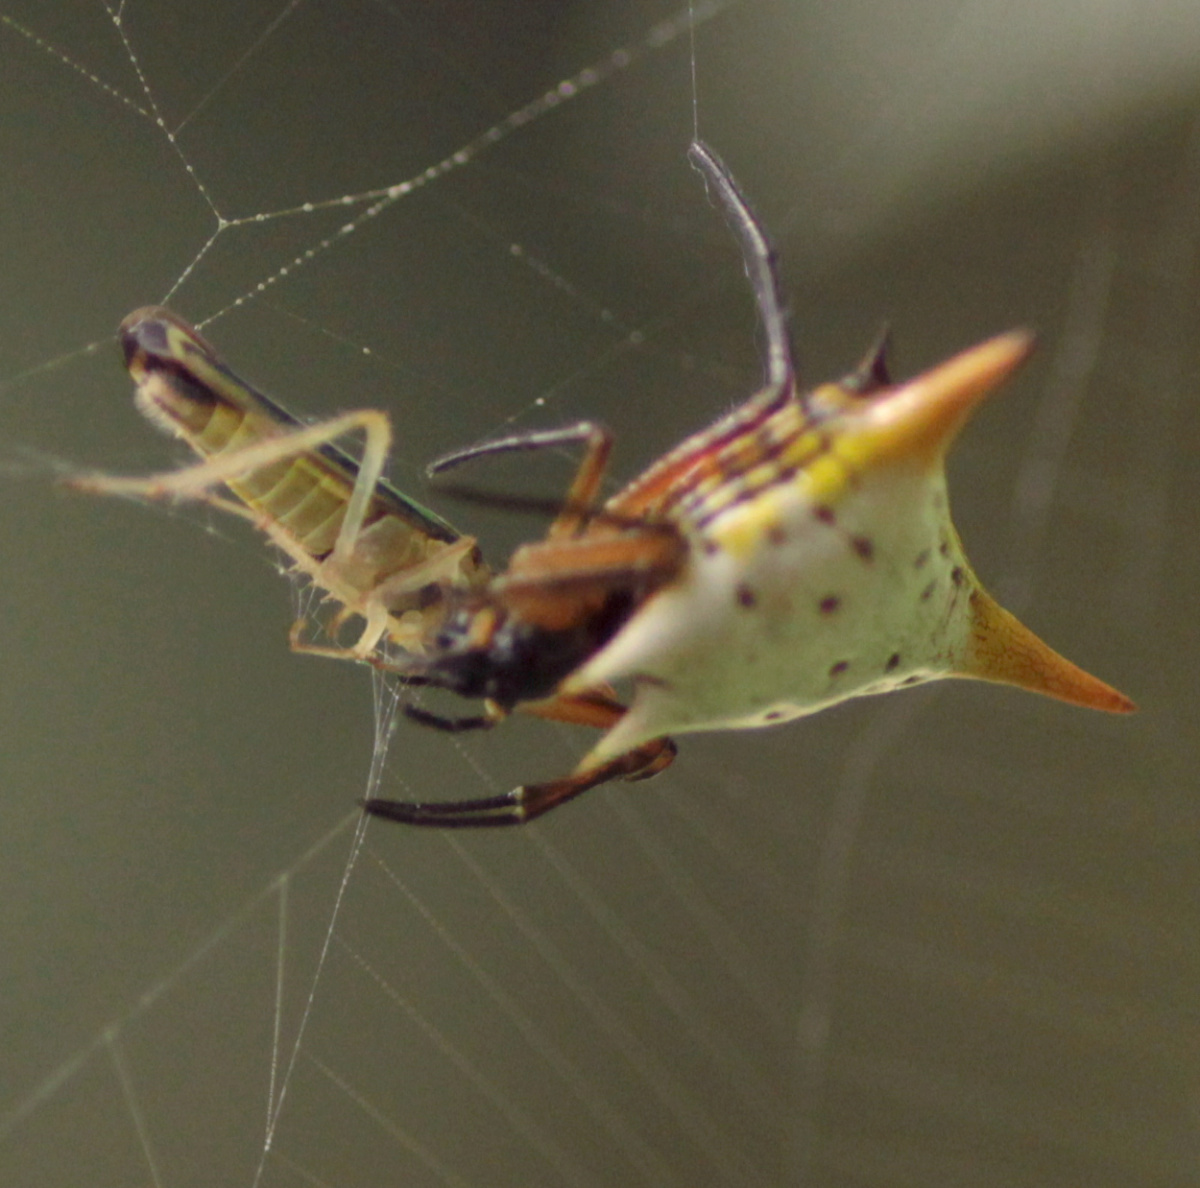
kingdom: Animalia
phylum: Arthropoda
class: Arachnida
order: Araneae
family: Araneidae
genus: Micrathena
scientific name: Micrathena bicolor
